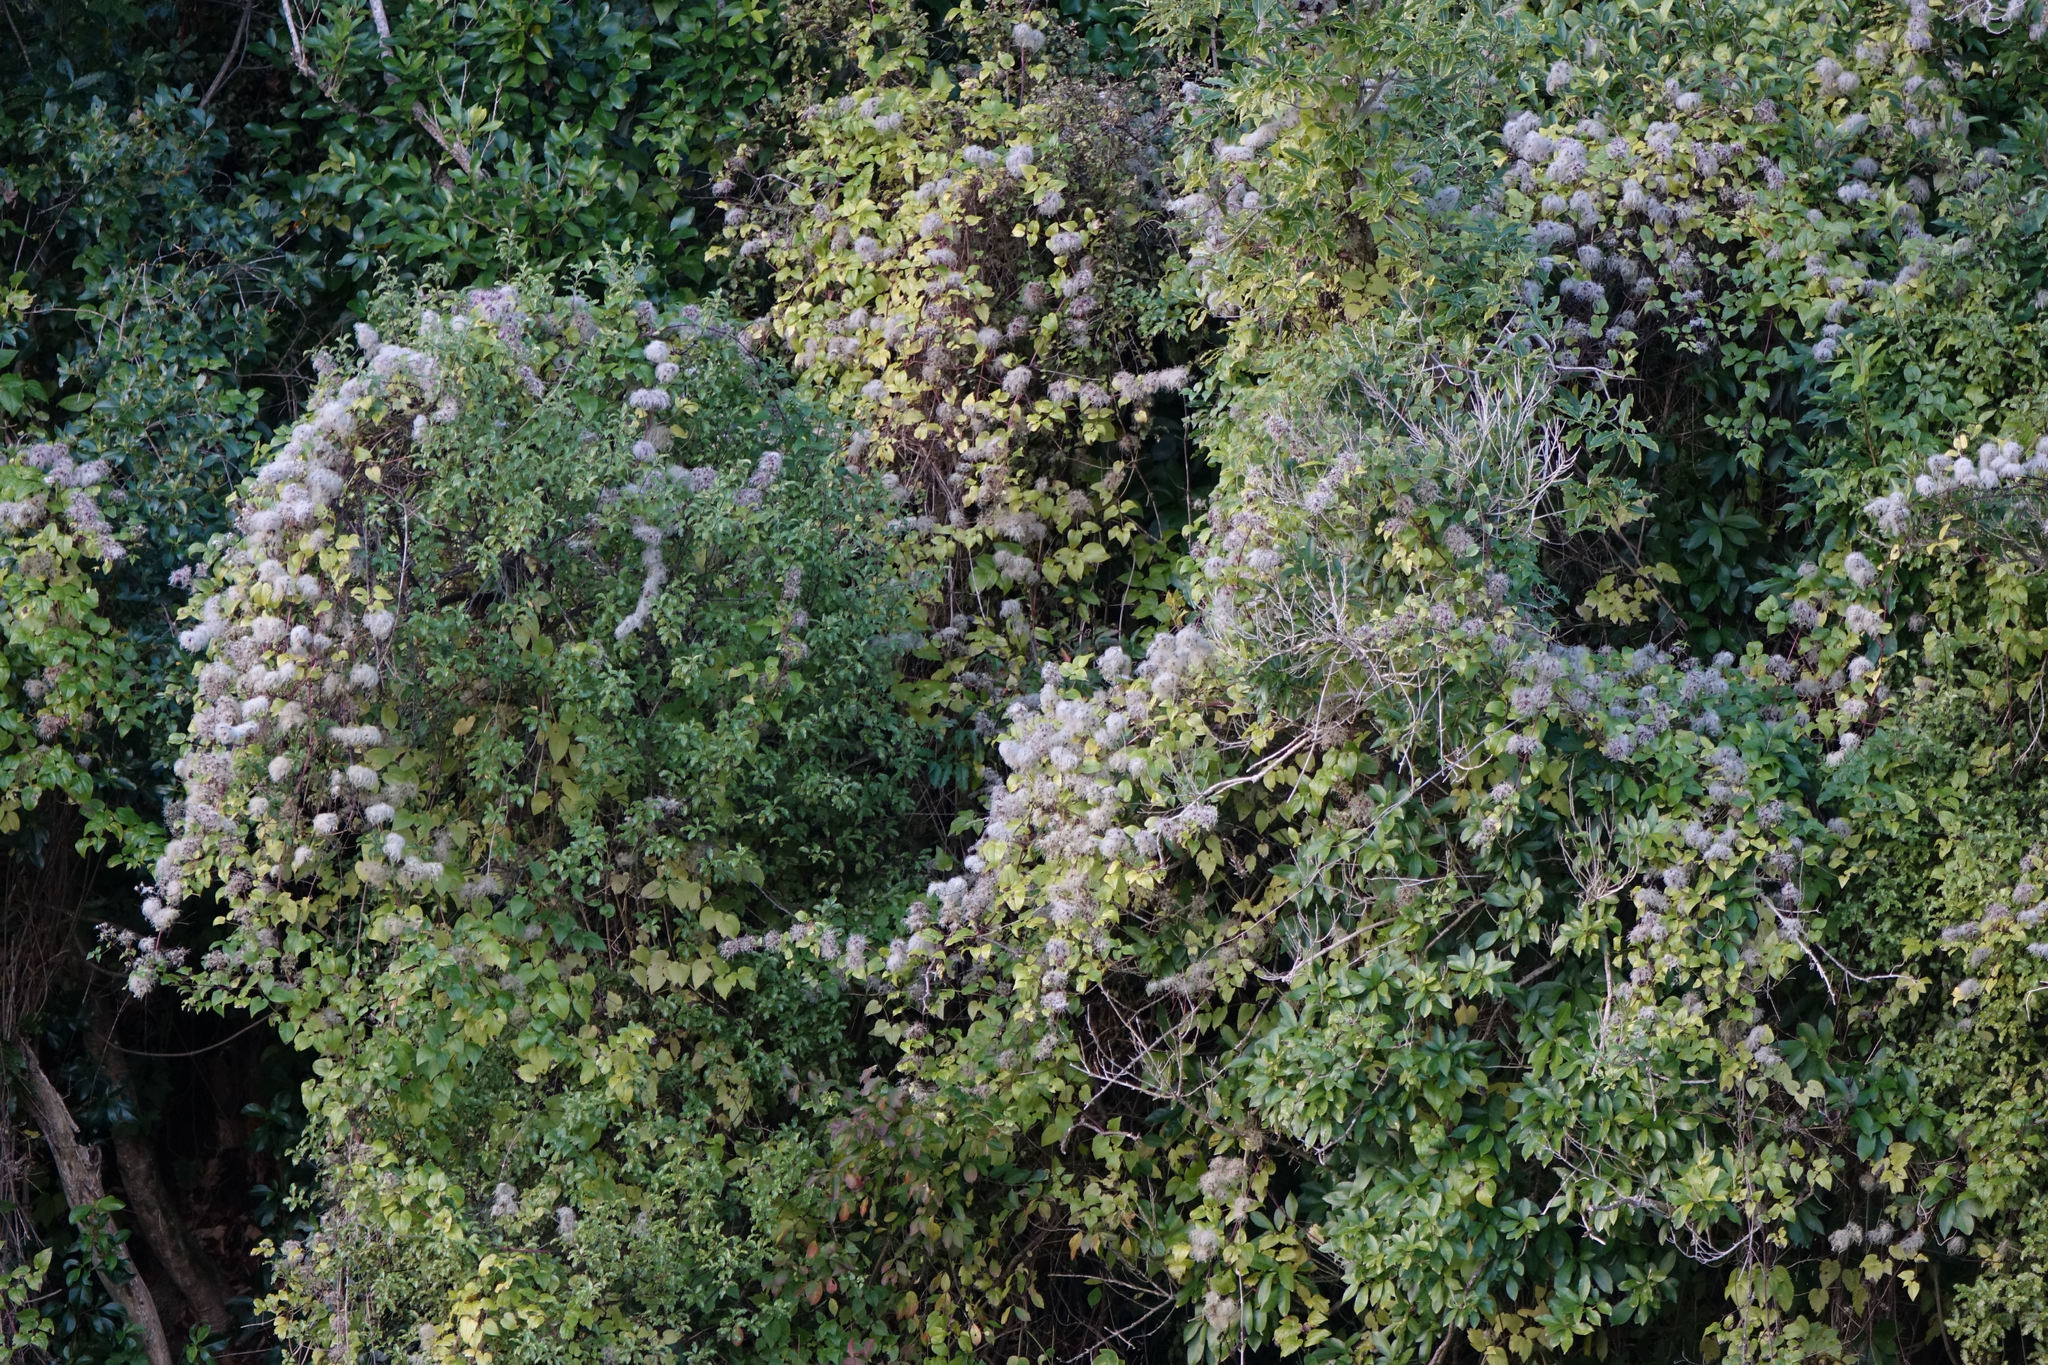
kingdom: Plantae
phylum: Tracheophyta
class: Magnoliopsida
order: Ranunculales
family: Ranunculaceae
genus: Clematis
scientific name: Clematis vitalba
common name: Evergreen clematis
